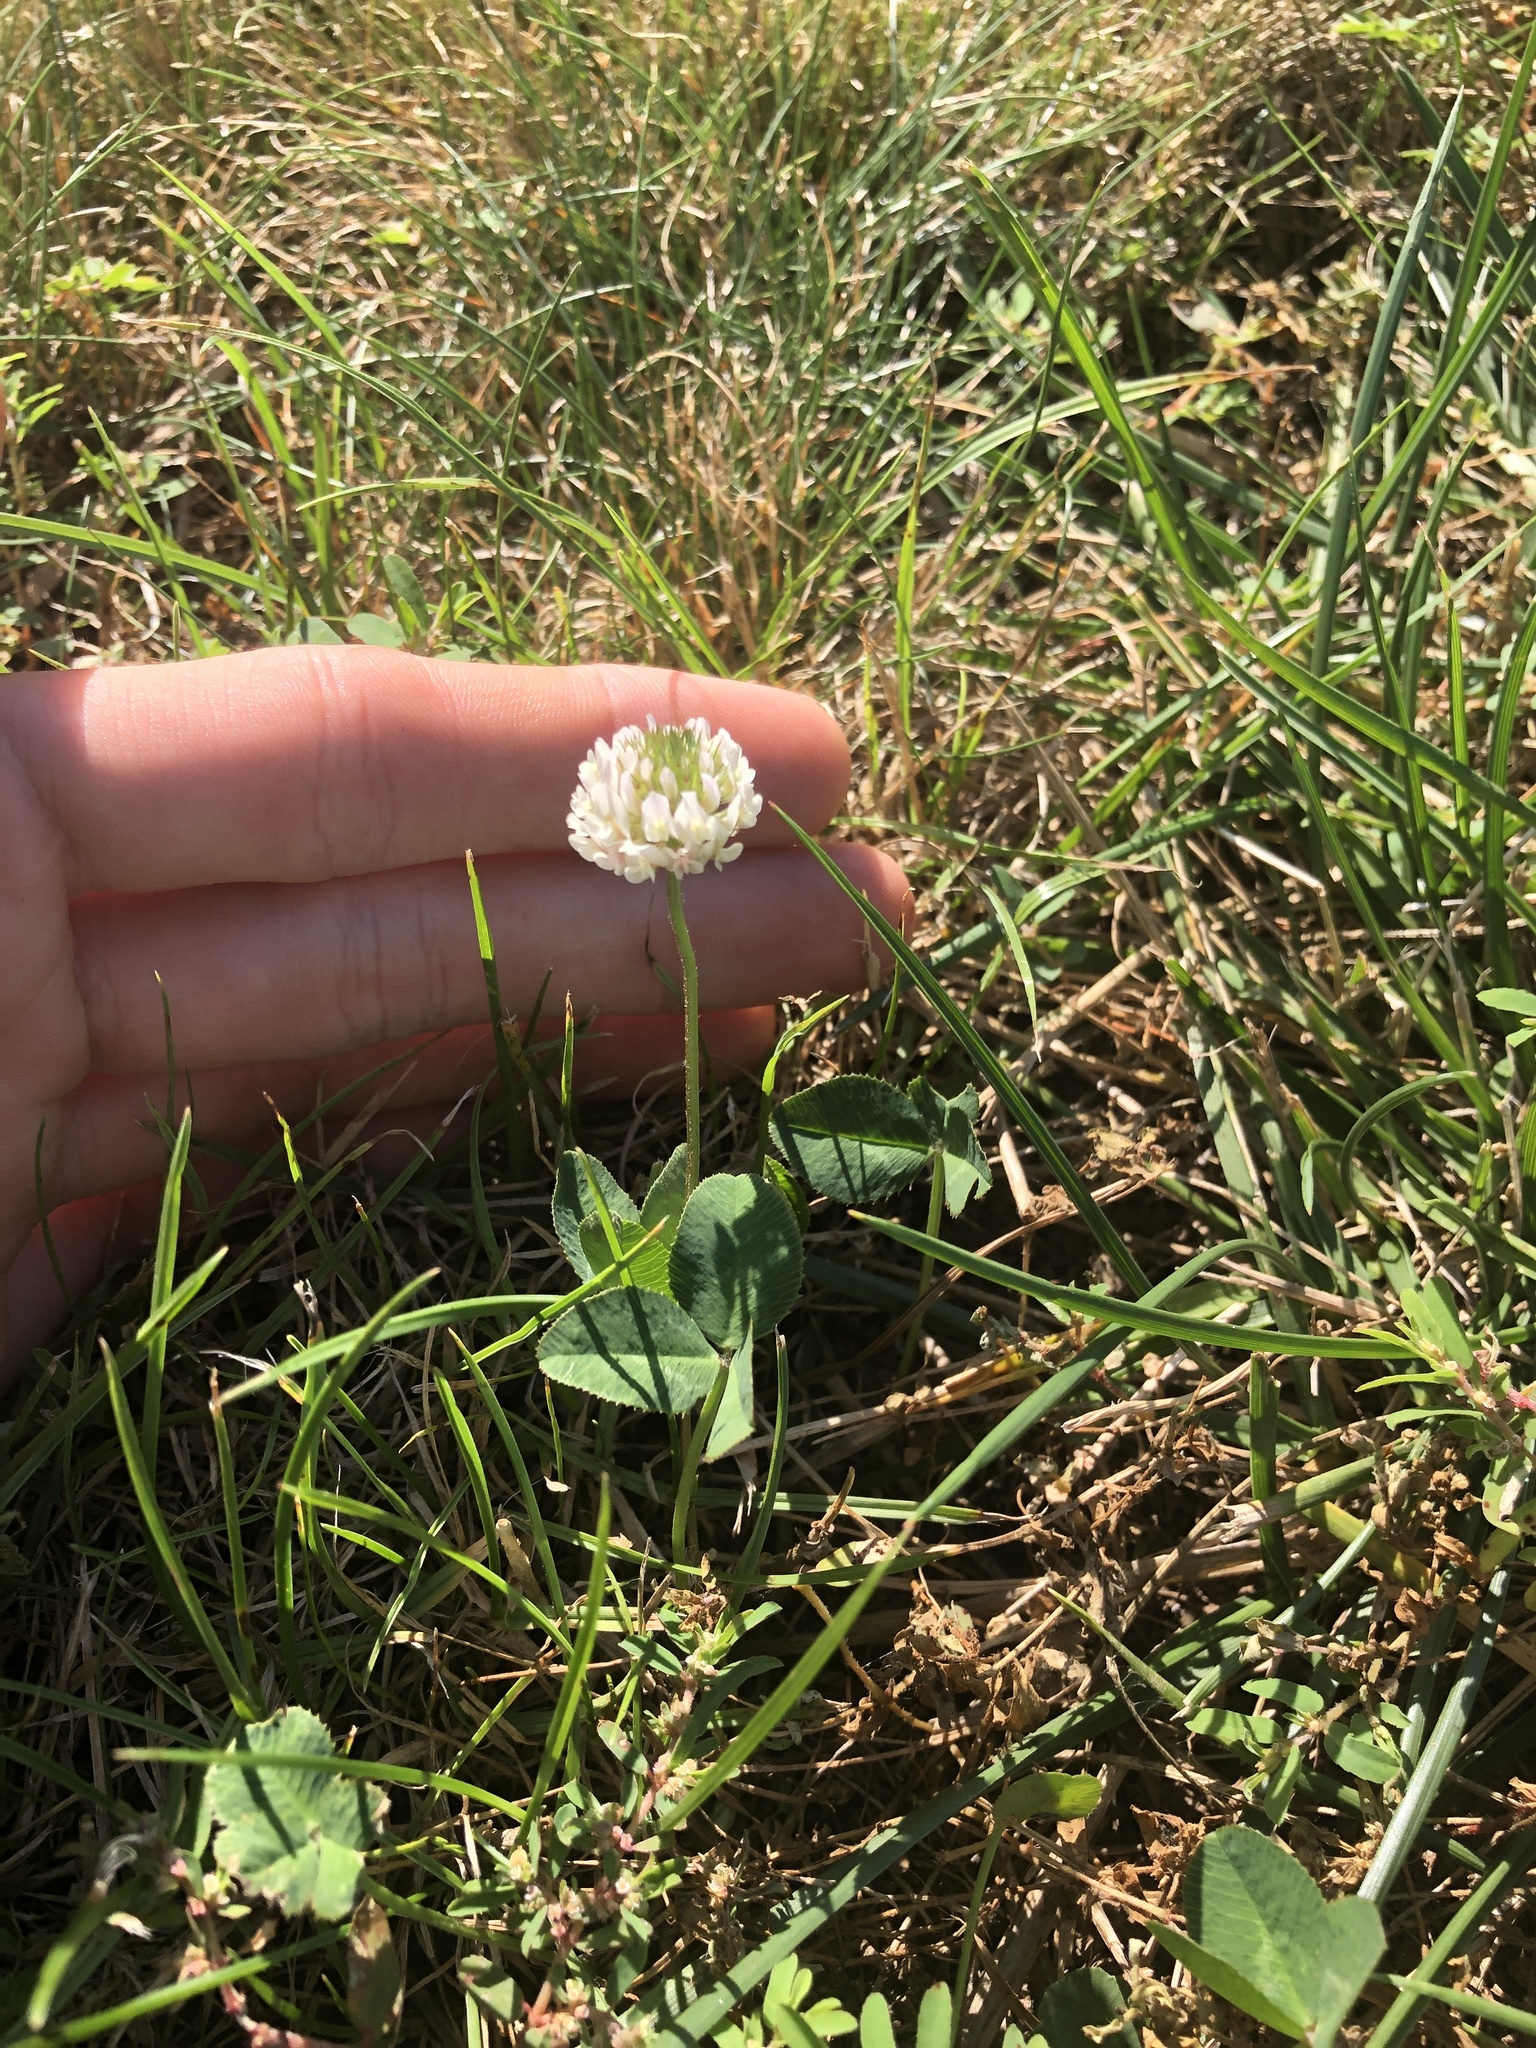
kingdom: Plantae
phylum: Tracheophyta
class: Magnoliopsida
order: Fabales
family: Fabaceae
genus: Trifolium
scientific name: Trifolium repens
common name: White clover
